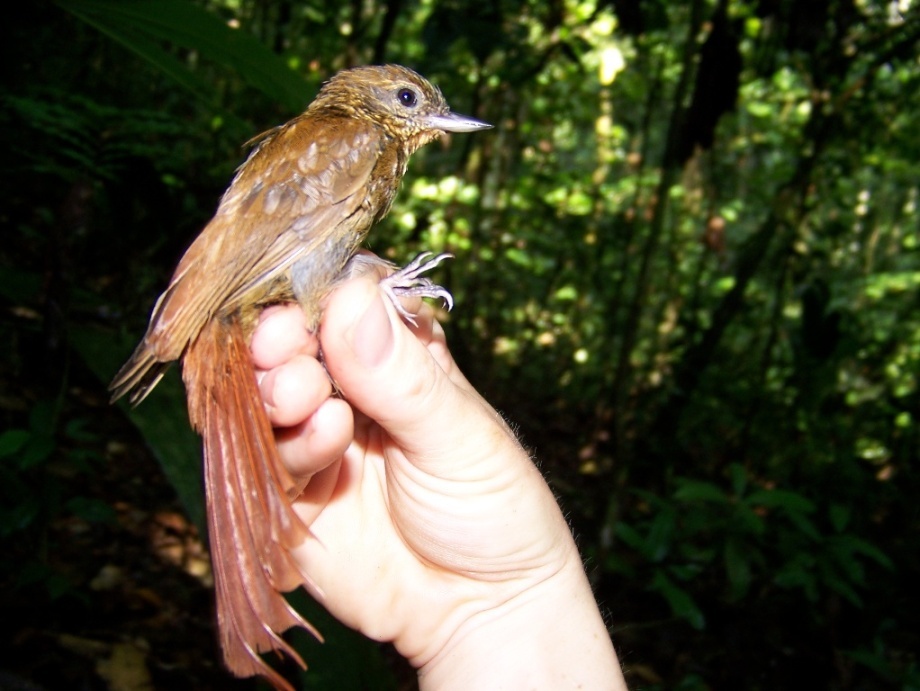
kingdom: Animalia
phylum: Chordata
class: Aves
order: Passeriformes
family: Furnariidae
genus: Glyphorynchus
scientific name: Glyphorynchus spirurus
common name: Wedge-billed woodcreeper
